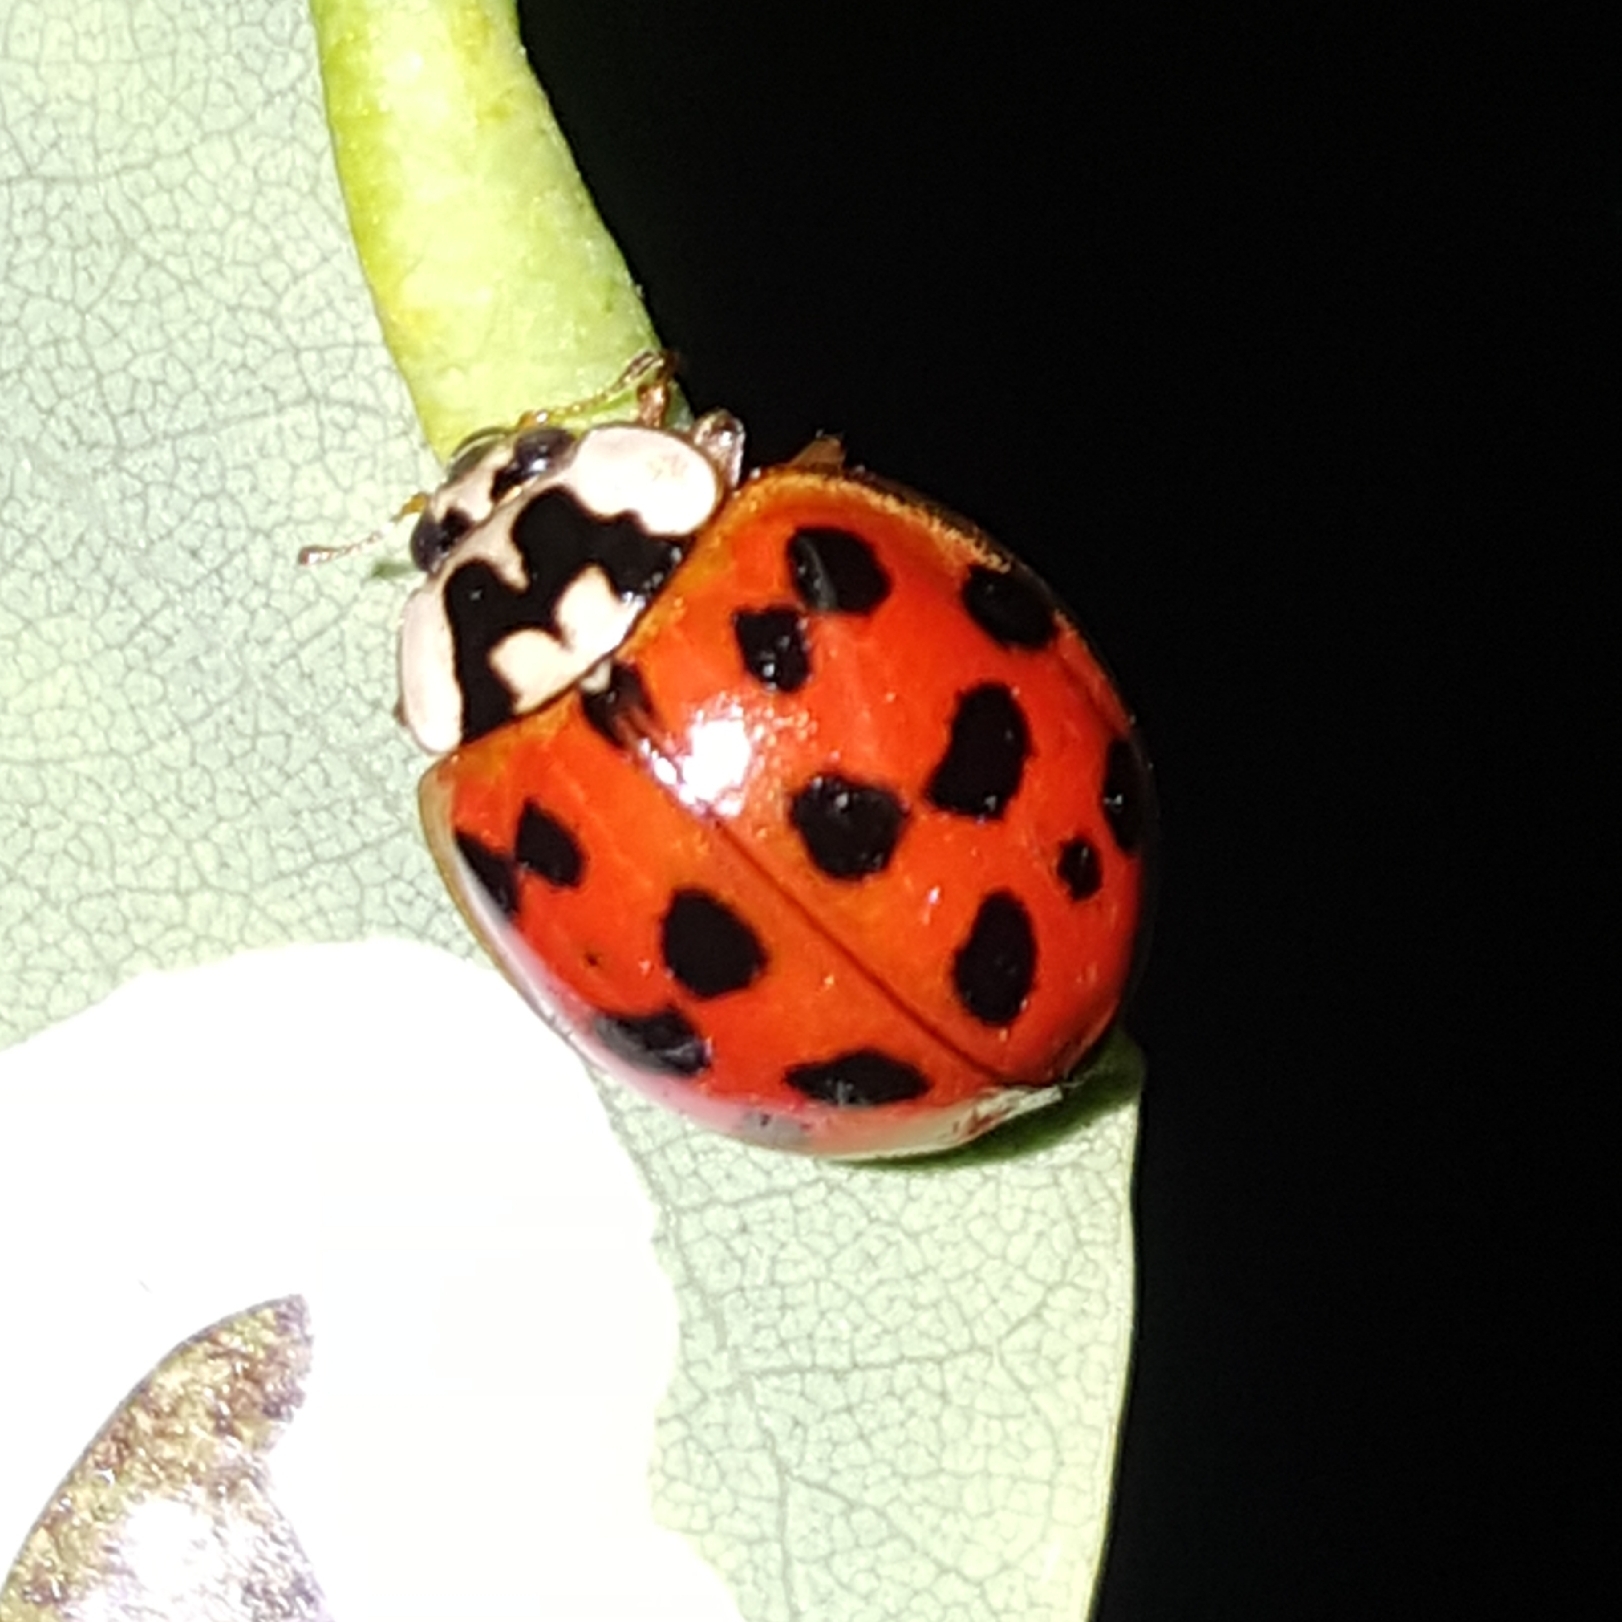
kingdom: Animalia
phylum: Arthropoda
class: Insecta
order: Coleoptera
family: Coccinellidae
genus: Harmonia
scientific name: Harmonia axyridis
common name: Harlequin ladybird
